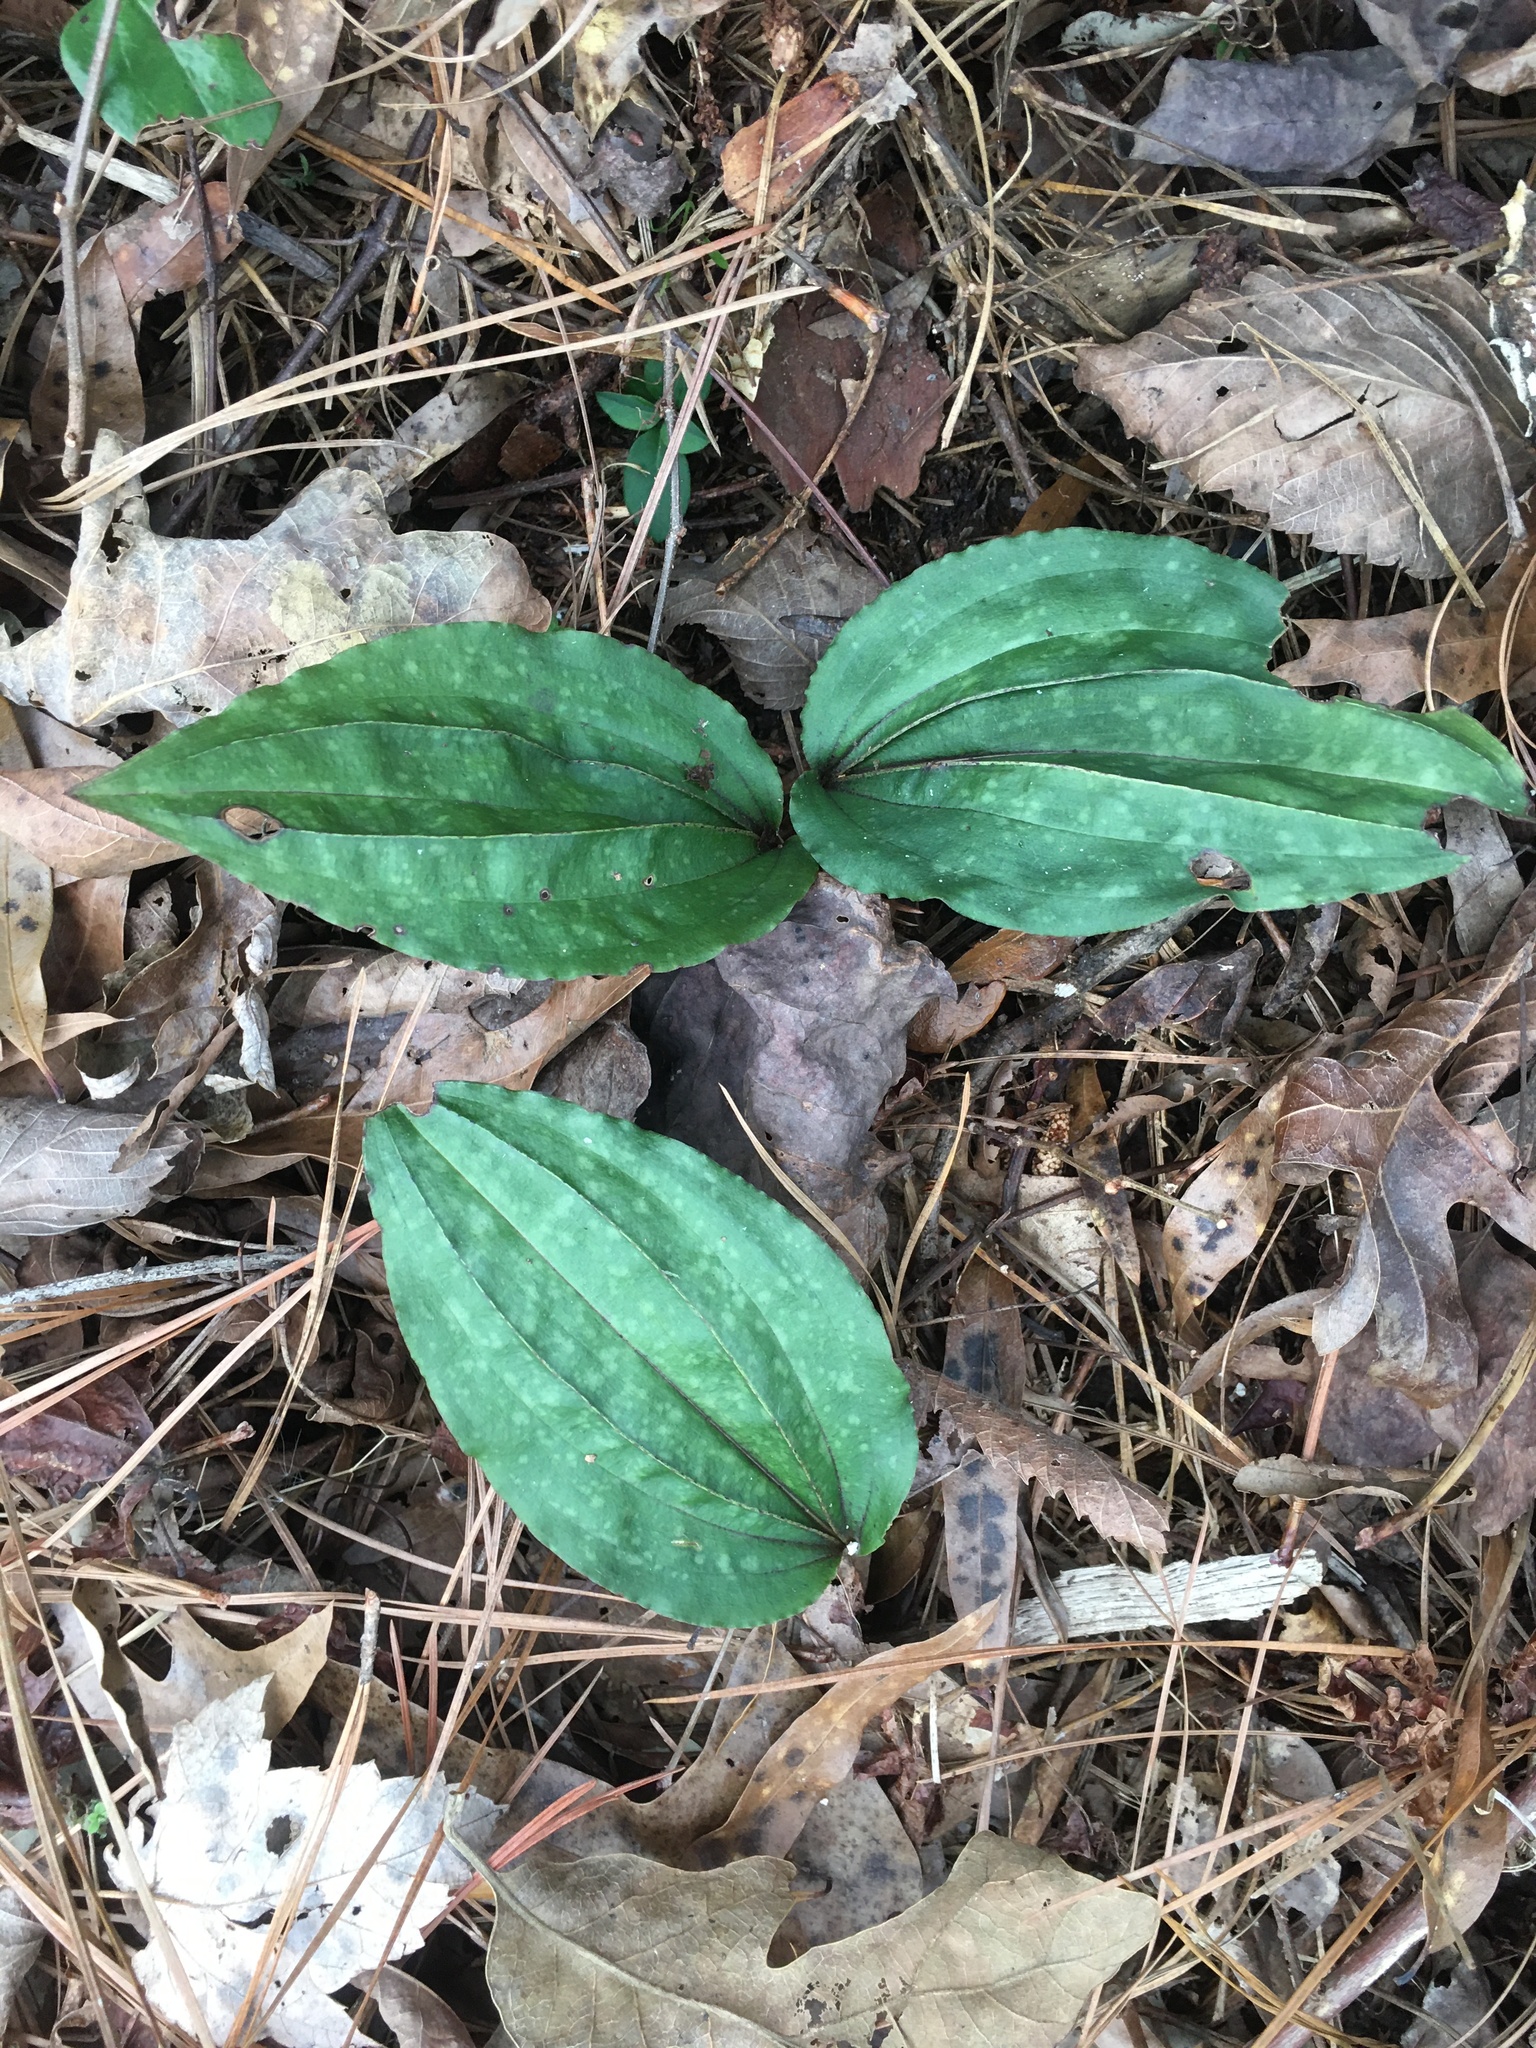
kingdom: Plantae
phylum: Tracheophyta
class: Liliopsida
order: Asparagales
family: Orchidaceae
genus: Tipularia
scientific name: Tipularia discolor
